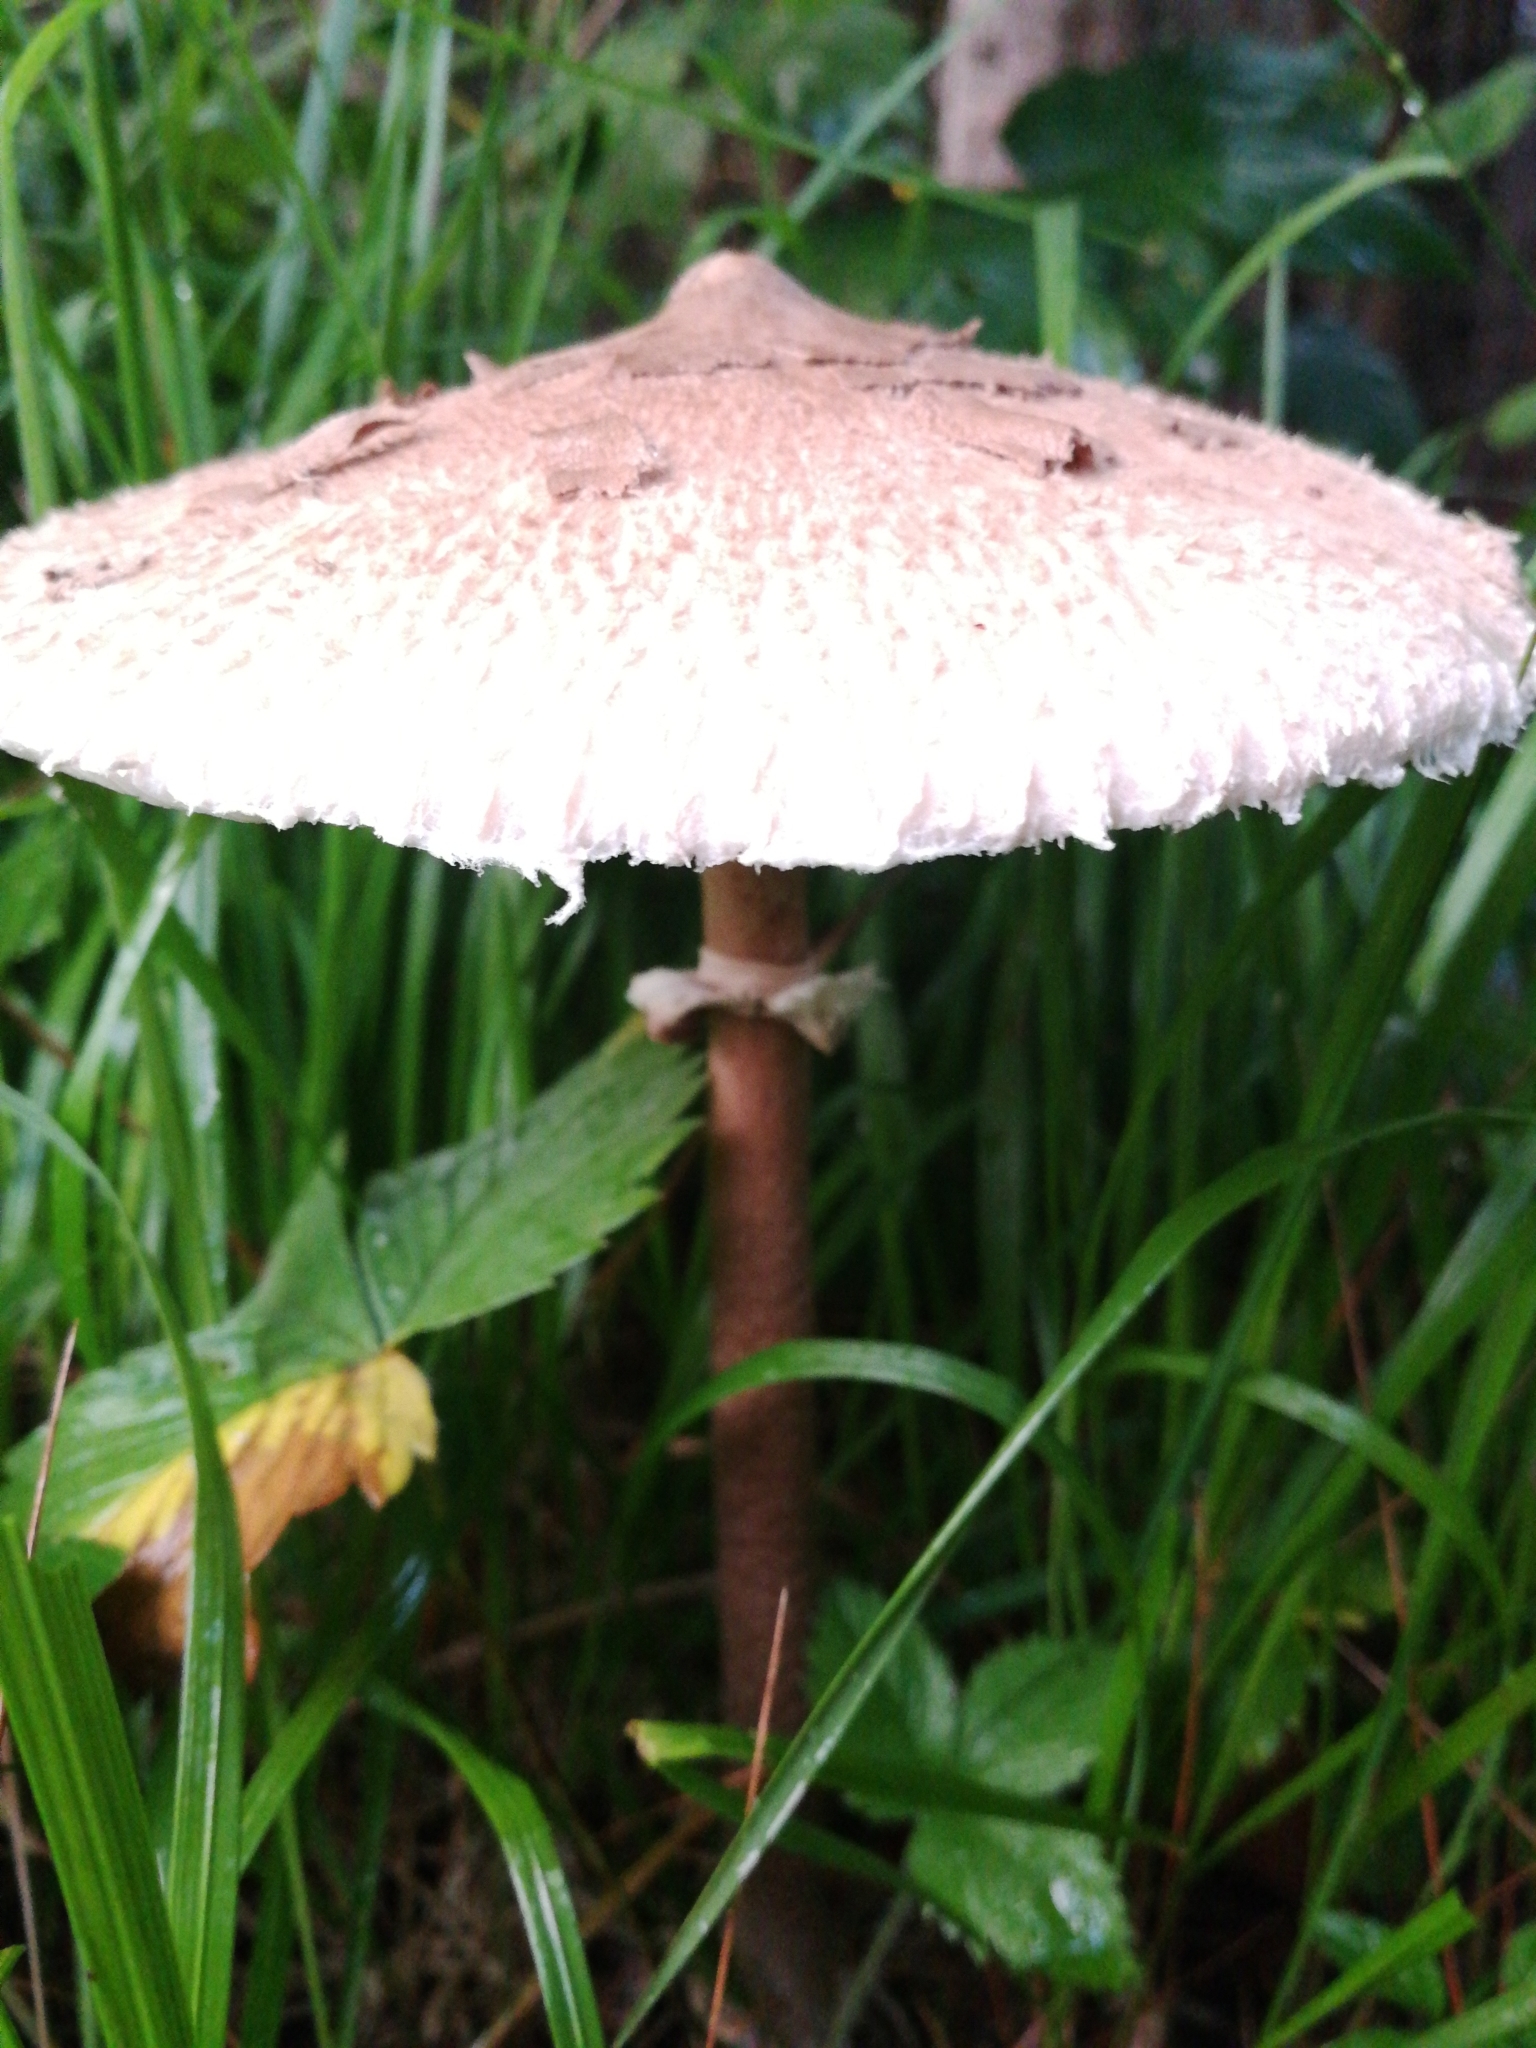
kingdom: Fungi
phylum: Basidiomycota
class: Agaricomycetes
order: Agaricales
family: Agaricaceae
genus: Macrolepiota
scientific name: Macrolepiota procera
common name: Parasol
